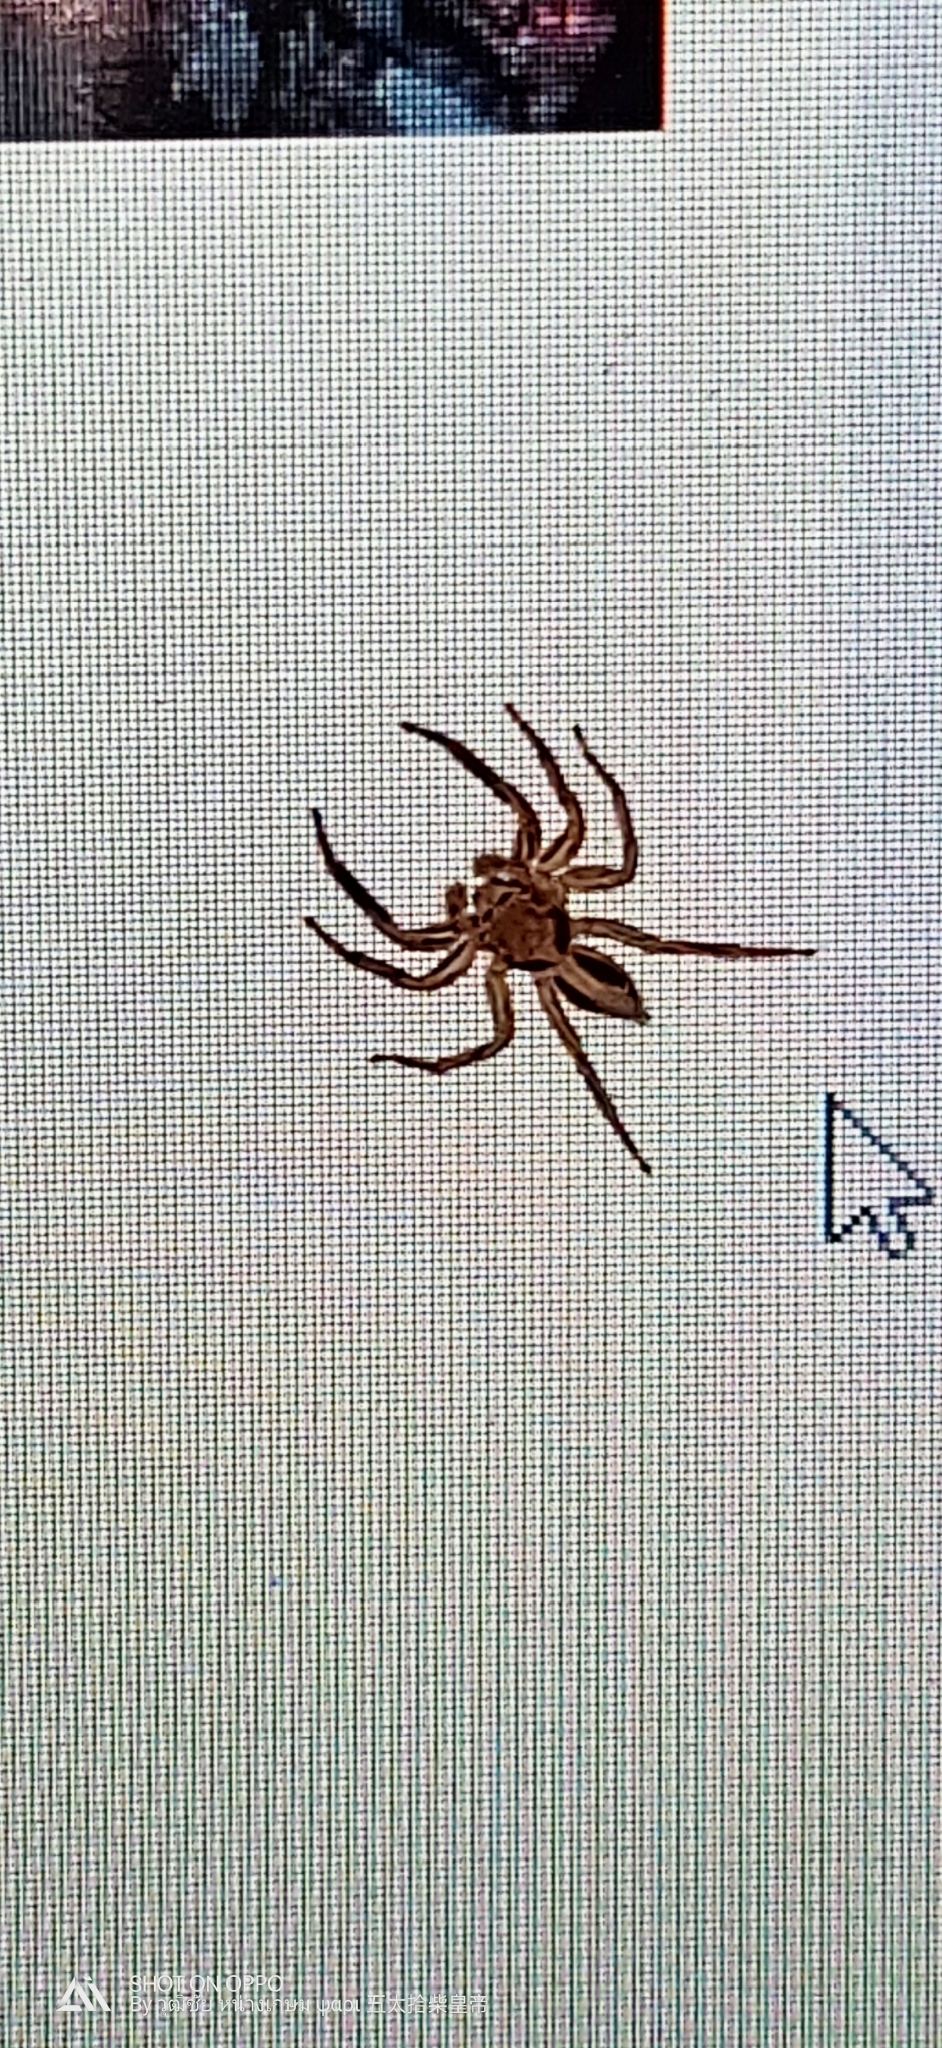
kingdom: Animalia
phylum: Arthropoda
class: Arachnida
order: Araneae
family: Salticidae
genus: Plexippus
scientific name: Plexippus petersi
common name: Jumping spider
